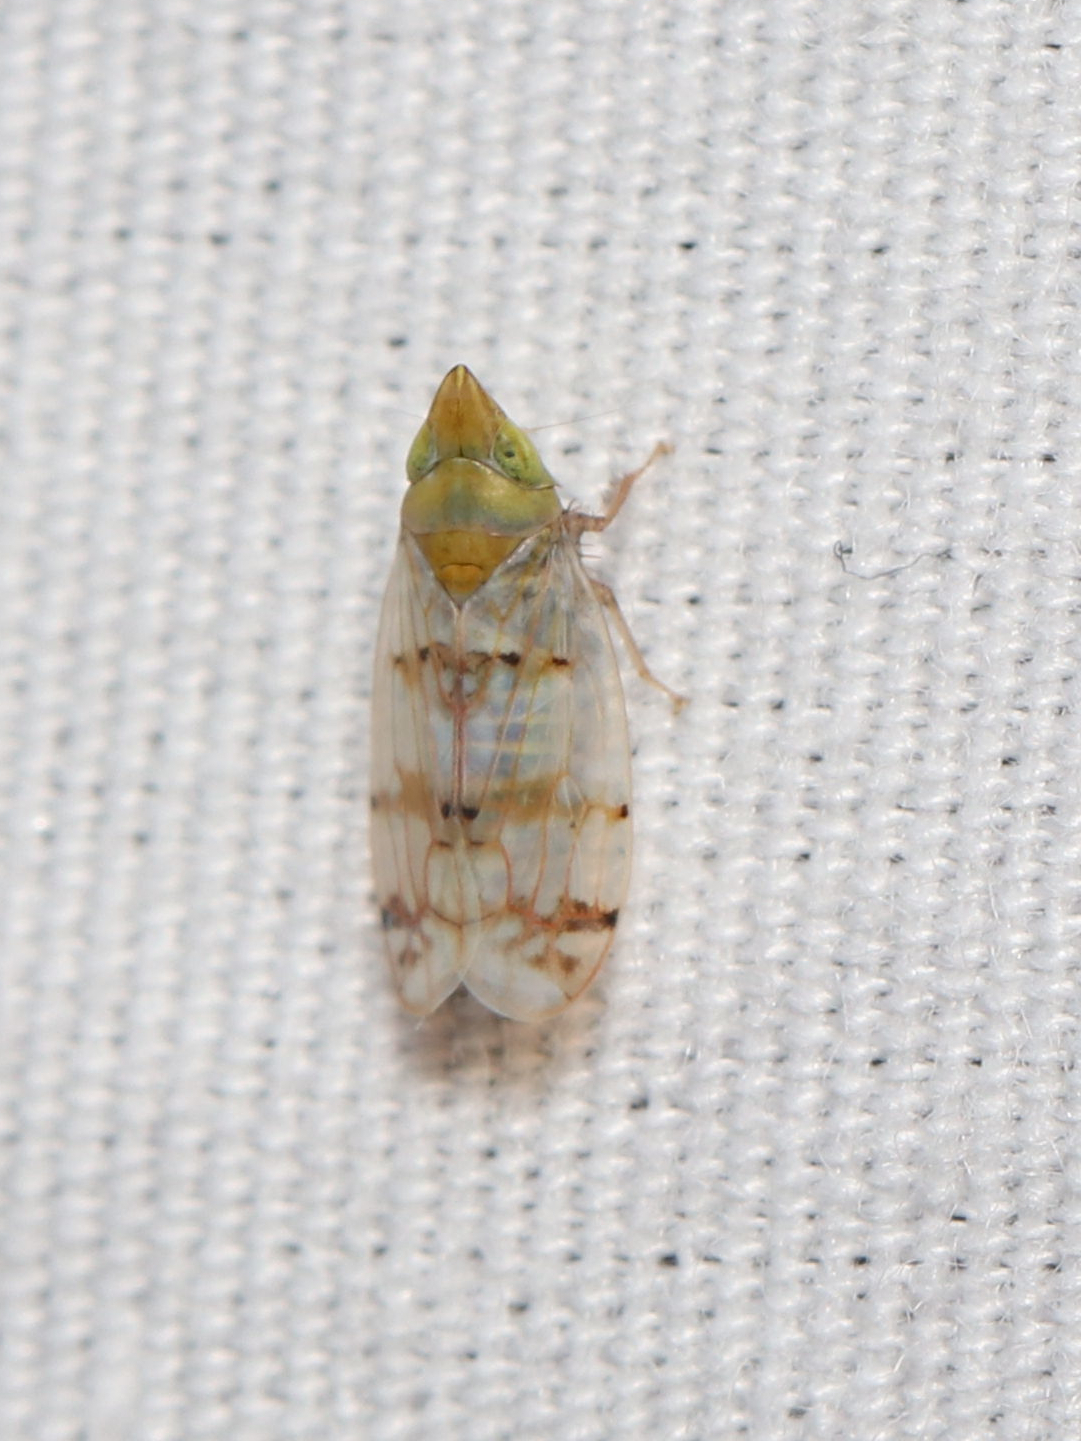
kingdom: Animalia
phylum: Arthropoda
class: Insecta
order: Hemiptera
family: Cicadellidae
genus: Japananus
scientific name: Japananus hyalinus
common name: The japanese maple leafhopper
